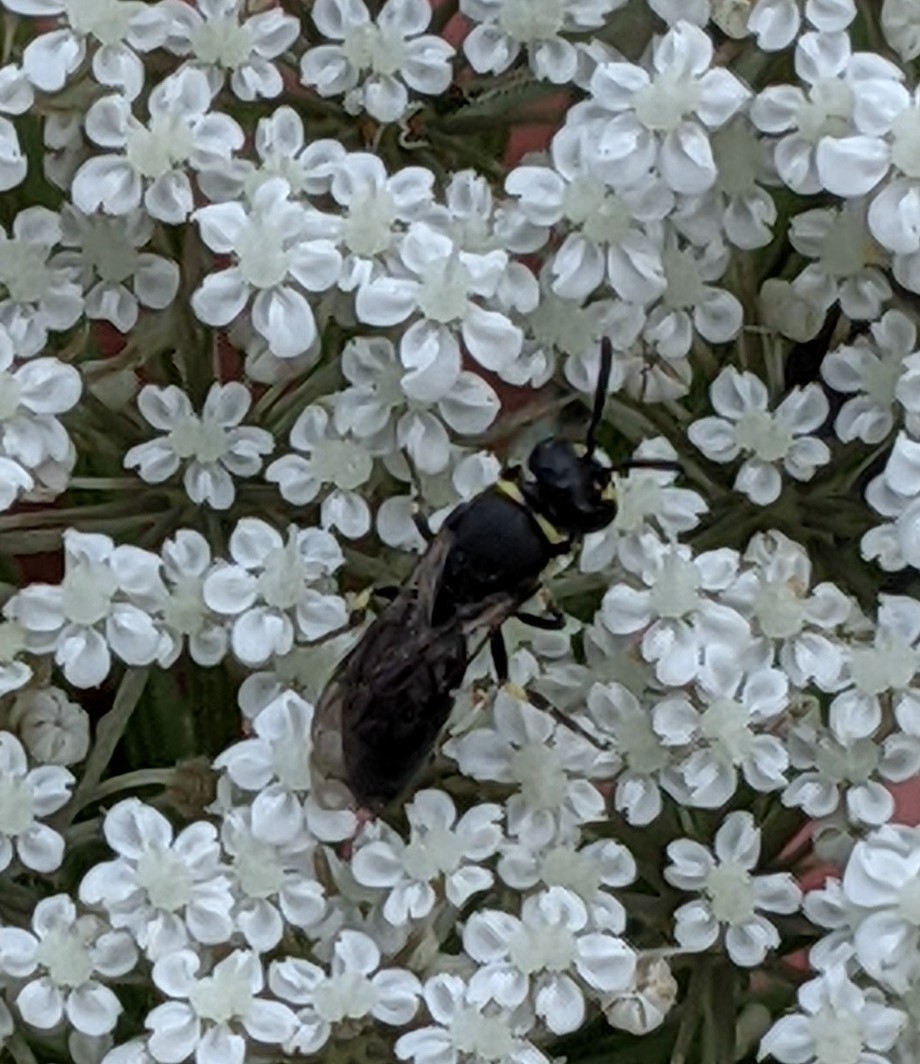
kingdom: Animalia
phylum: Arthropoda
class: Insecta
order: Hymenoptera
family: Colletidae
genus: Hylaeus
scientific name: Hylaeus modestus
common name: Yellow-faced bee
